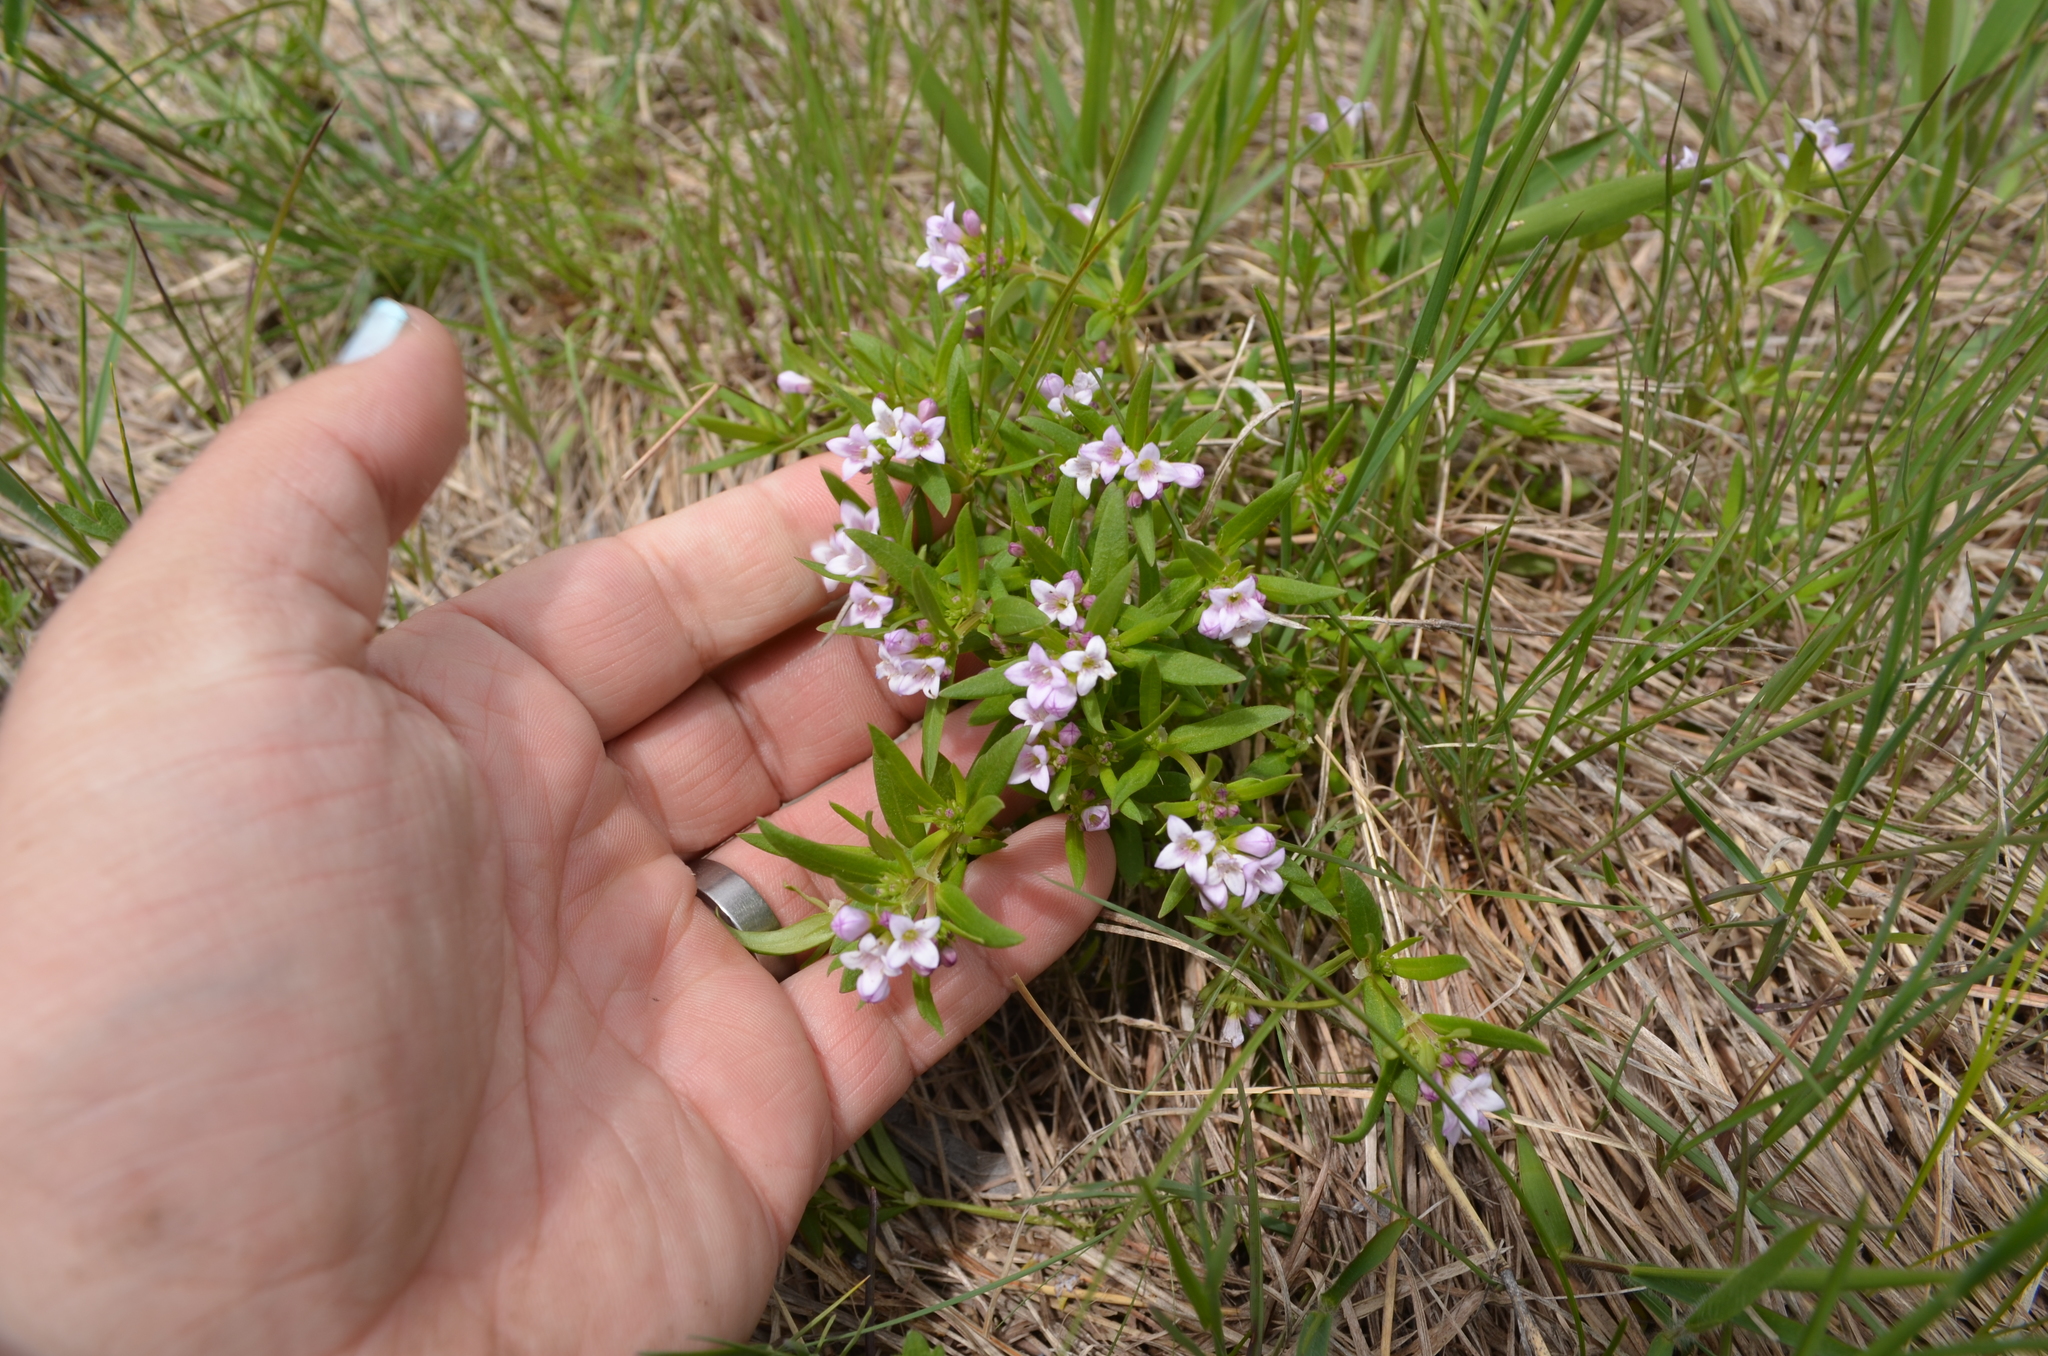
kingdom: Plantae
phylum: Tracheophyta
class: Magnoliopsida
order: Gentianales
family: Rubiaceae
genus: Houstonia
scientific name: Houstonia longifolia
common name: Long-leaved bluets
